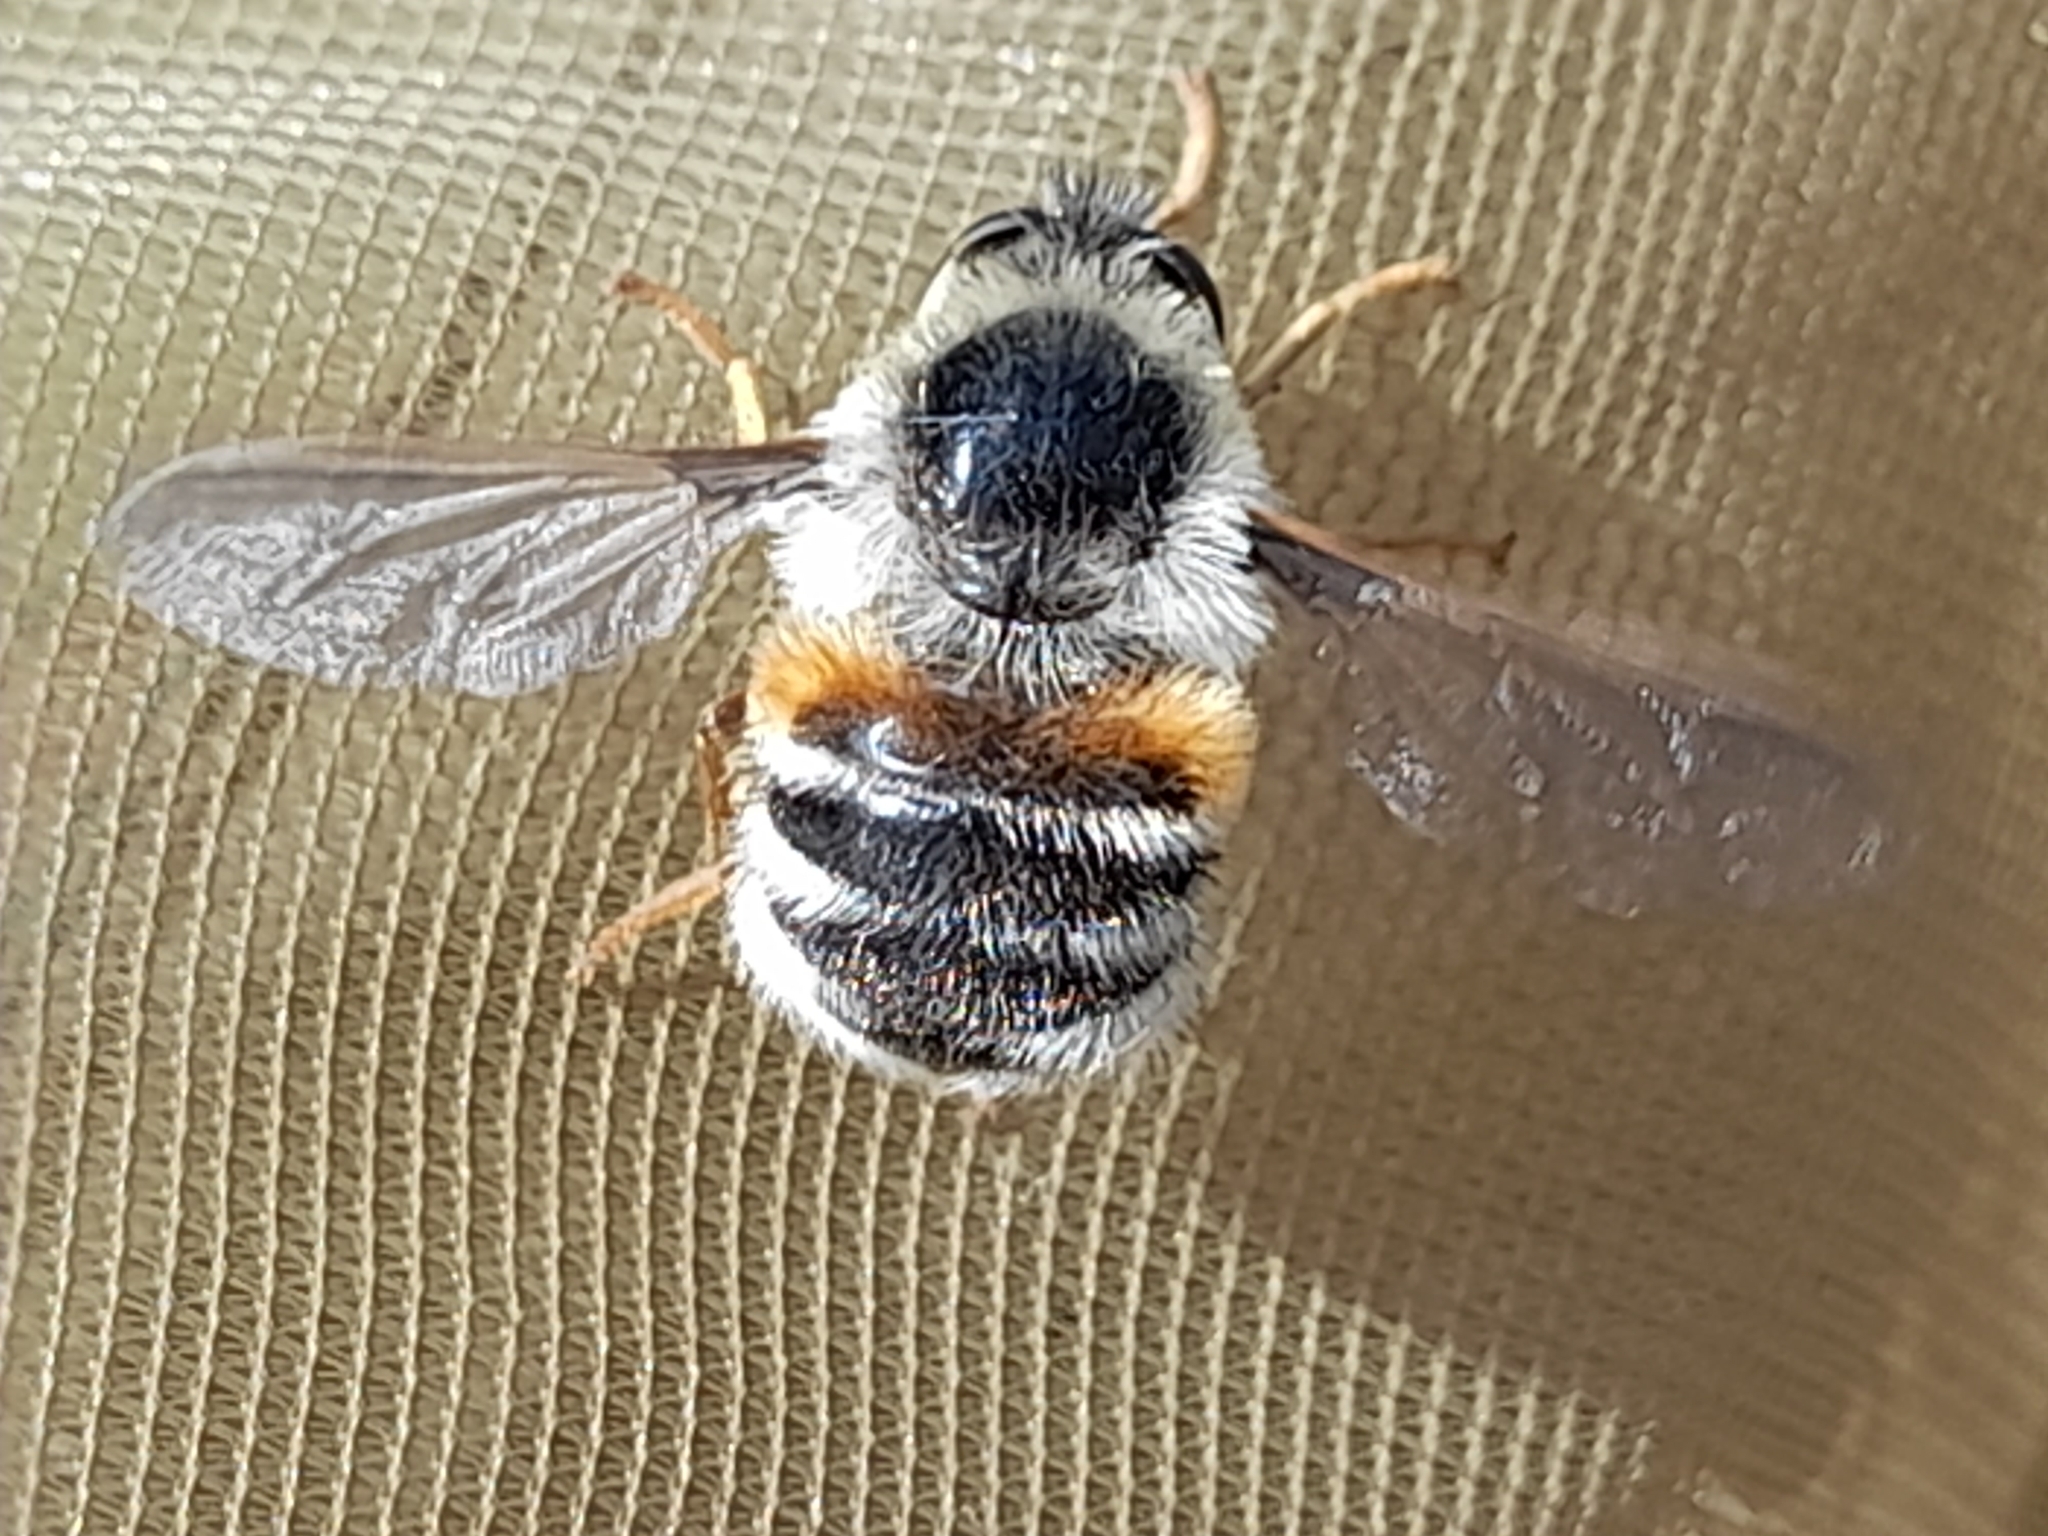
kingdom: Animalia
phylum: Arthropoda
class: Insecta
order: Diptera
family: Nemestrinidae
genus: Fallenia
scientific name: Fallenia fasciata
